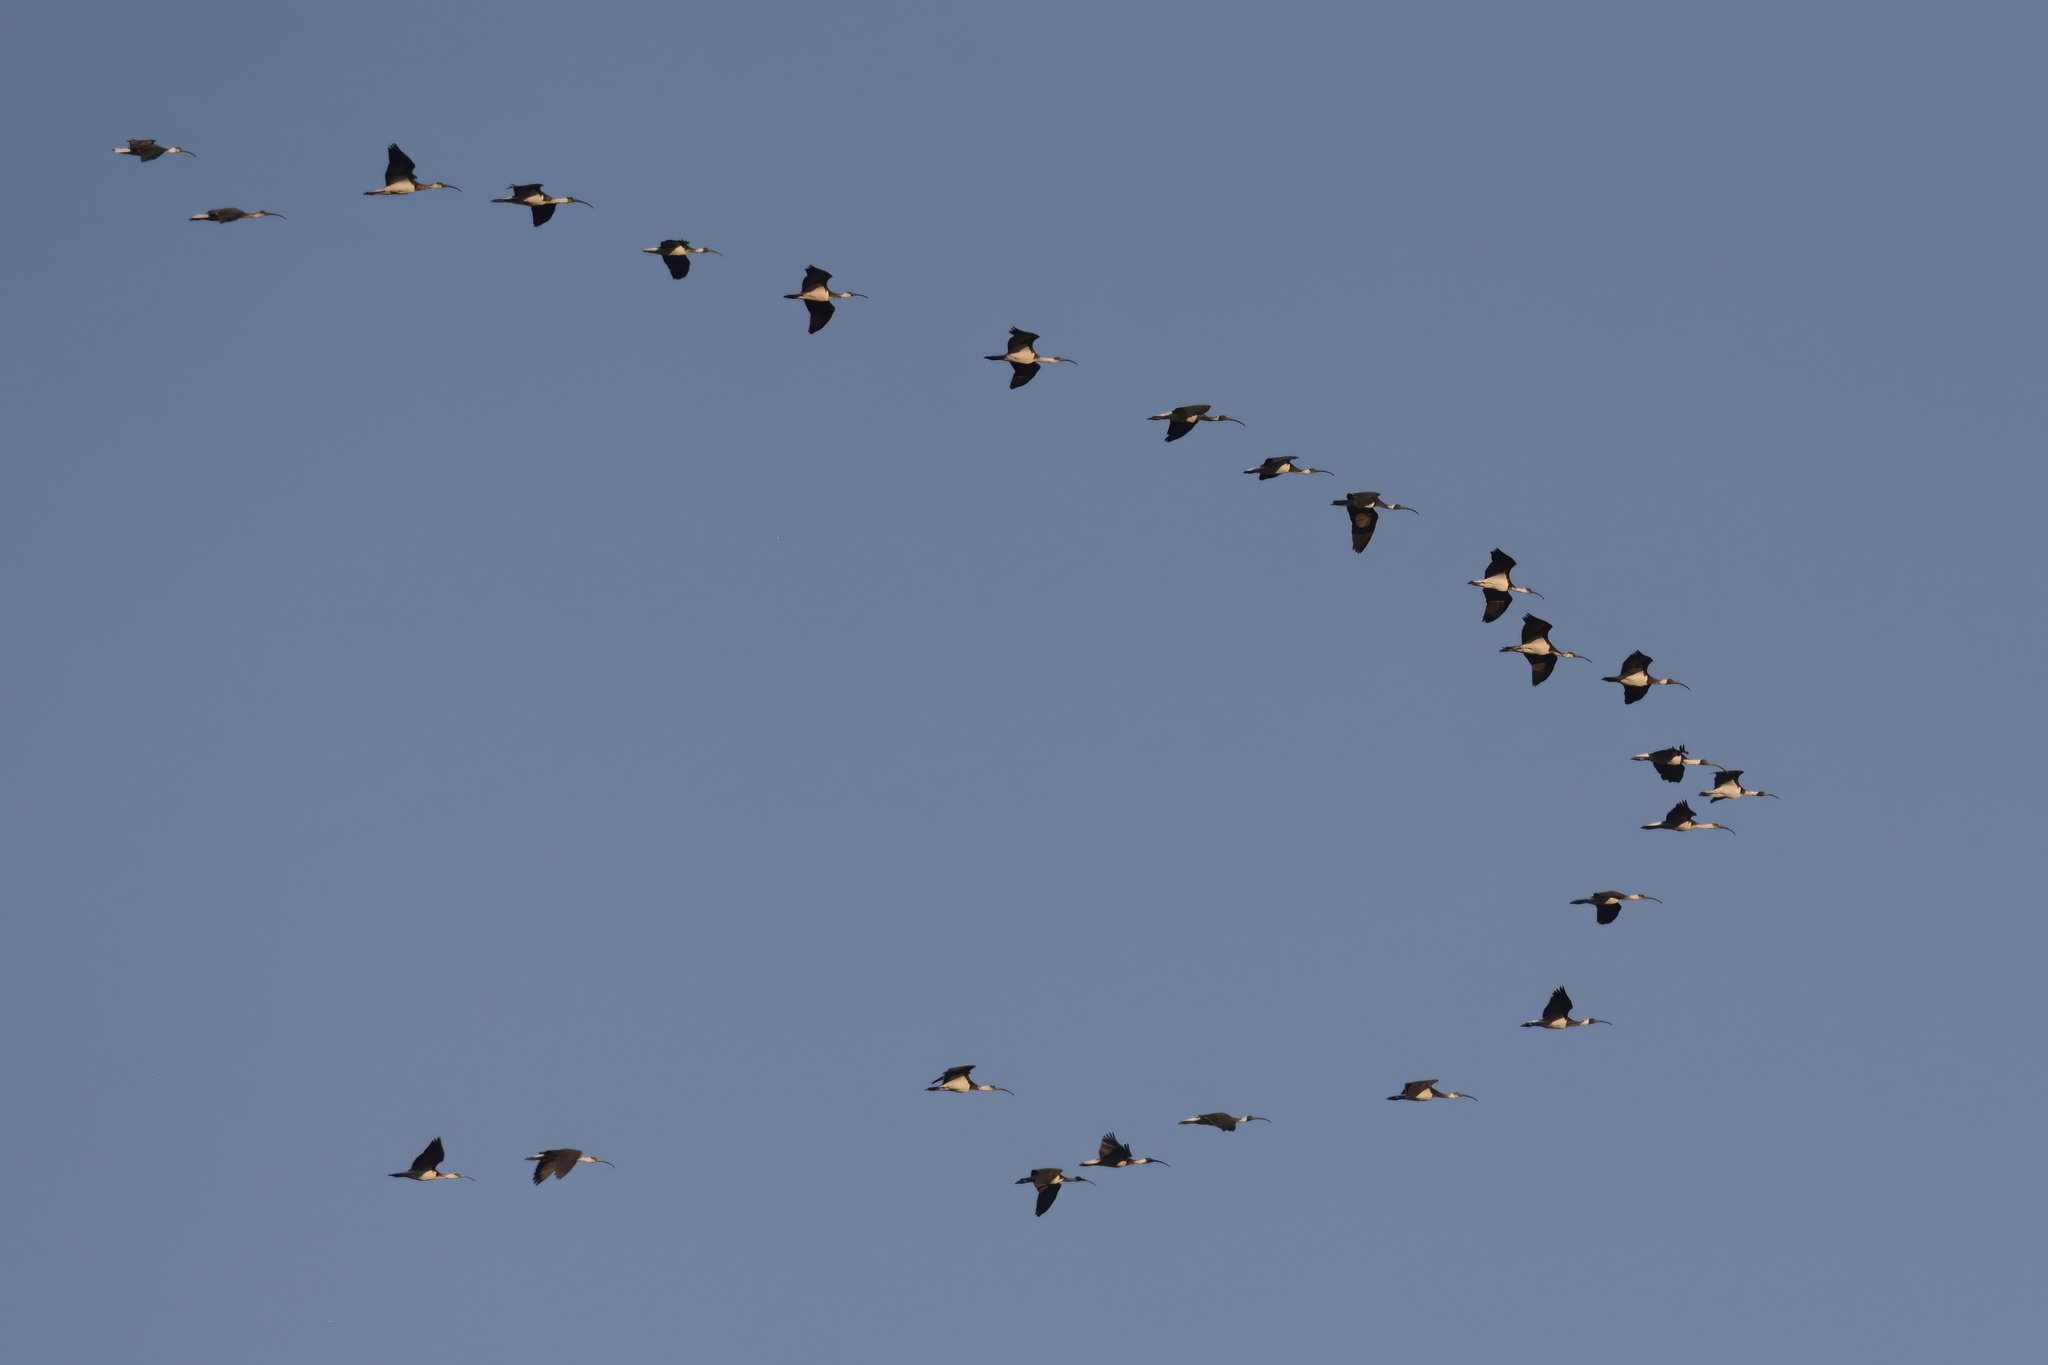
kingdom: Animalia
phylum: Chordata
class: Aves
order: Pelecaniformes
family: Threskiornithidae
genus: Threskiornis
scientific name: Threskiornis spinicollis
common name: Straw-necked ibis
